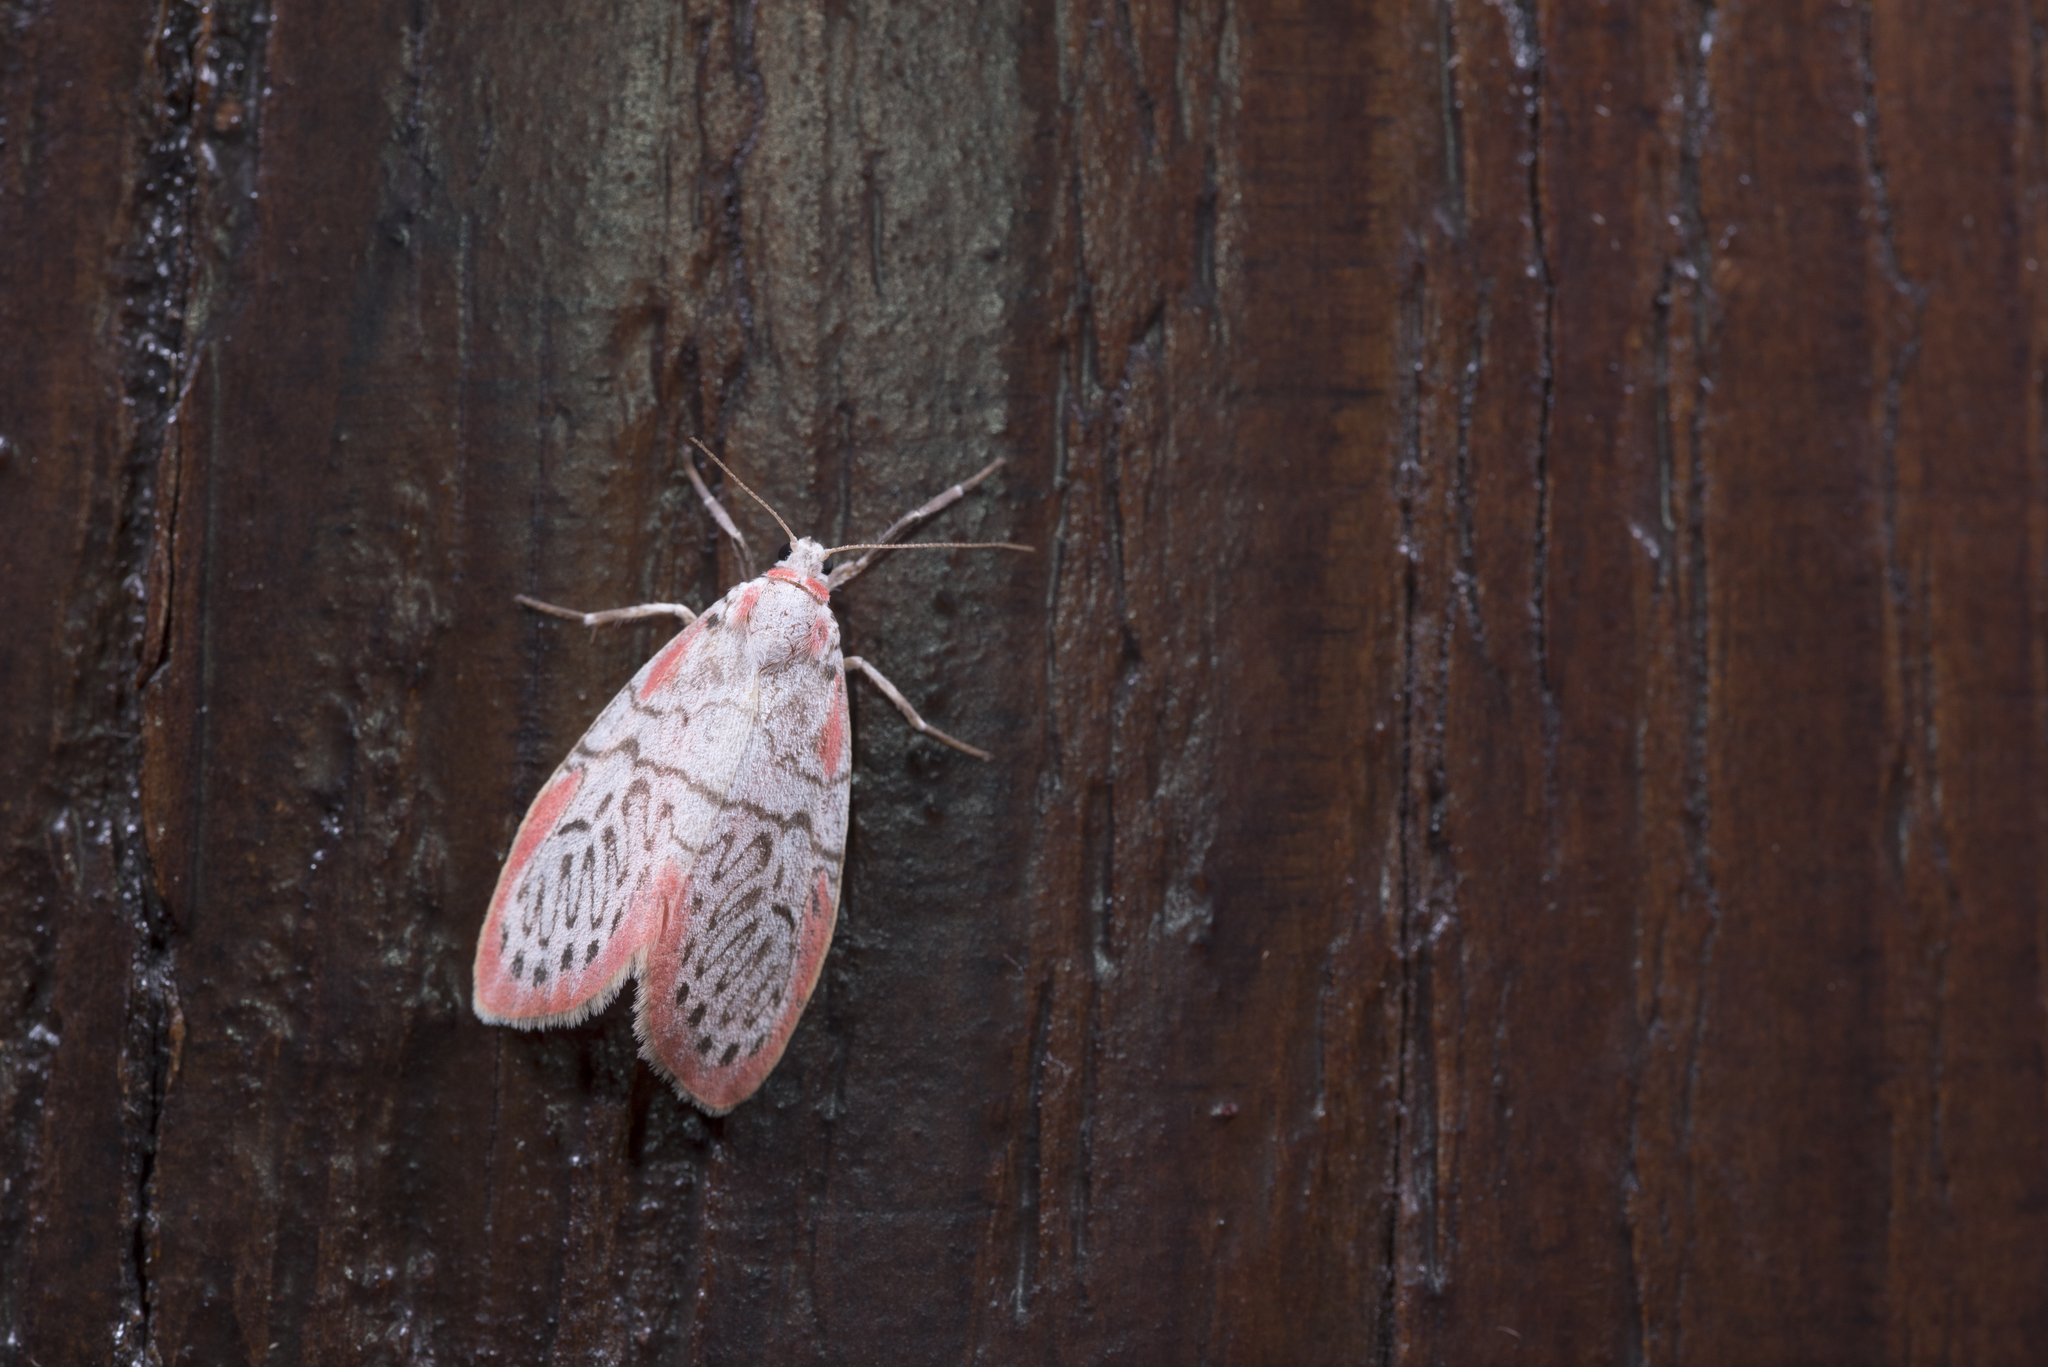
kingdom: Animalia
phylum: Arthropoda
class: Insecta
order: Lepidoptera
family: Erebidae
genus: Miltochrista
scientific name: Miltochrista ziczac
